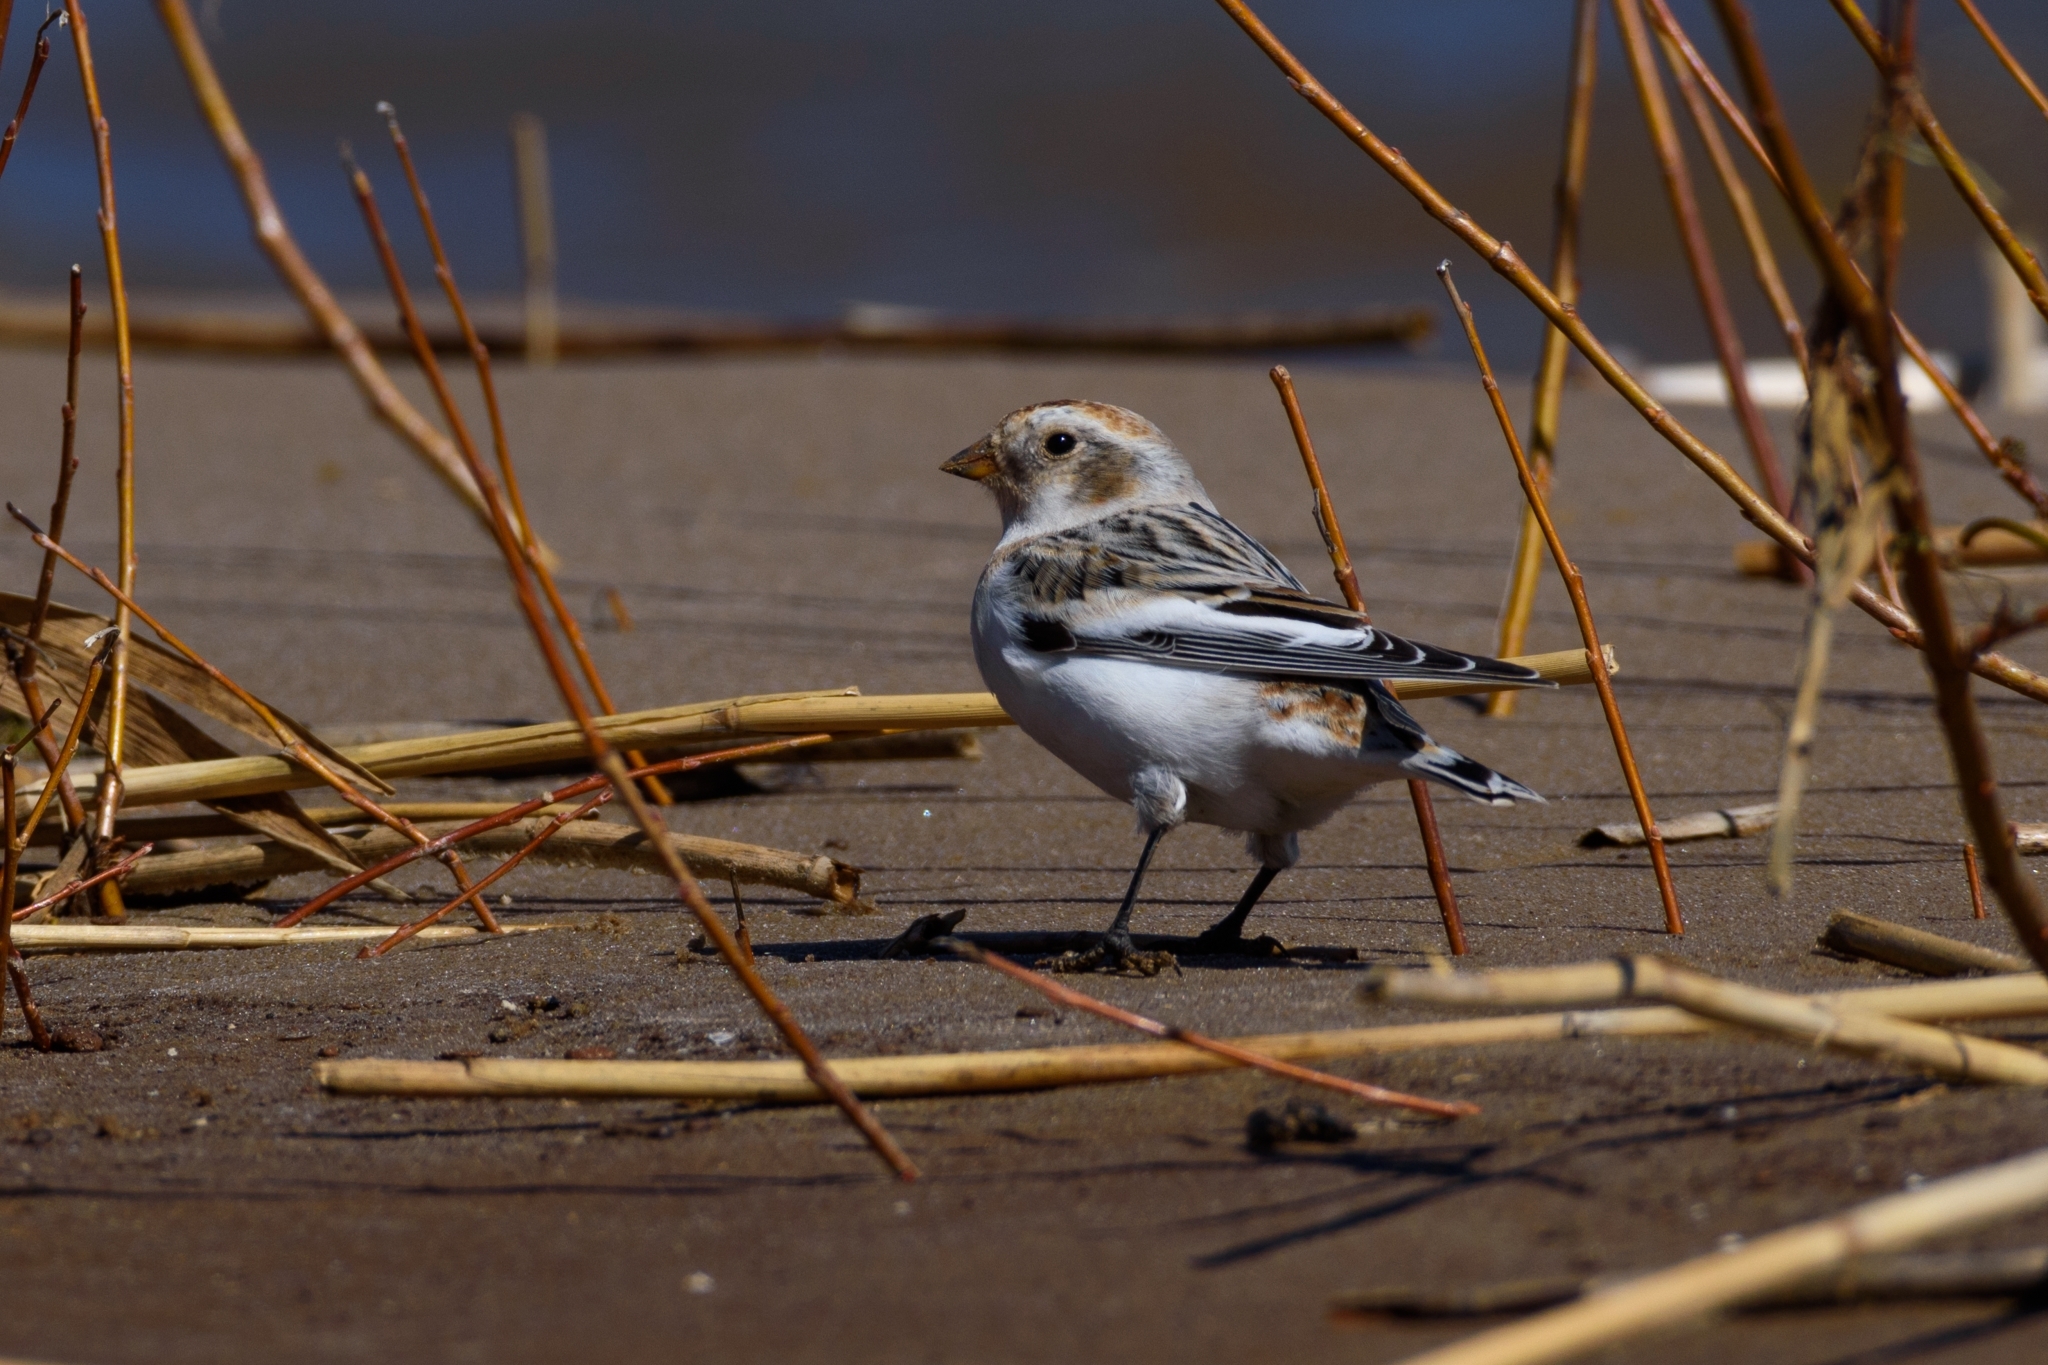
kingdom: Animalia
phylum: Chordata
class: Aves
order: Passeriformes
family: Calcariidae
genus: Plectrophenax
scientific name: Plectrophenax nivalis
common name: Snow bunting
